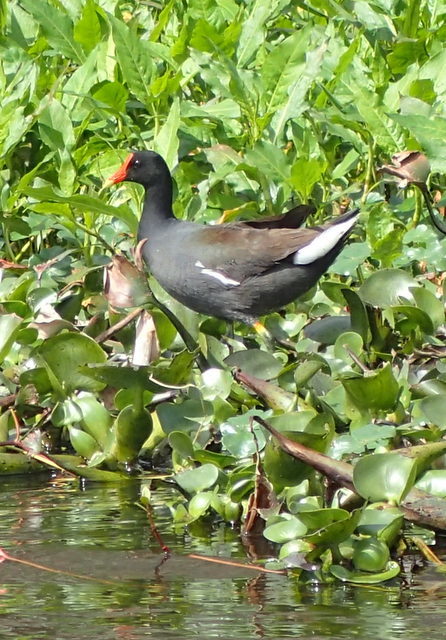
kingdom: Animalia
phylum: Chordata
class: Aves
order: Gruiformes
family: Rallidae
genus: Gallinula
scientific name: Gallinula chloropus
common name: Common moorhen
